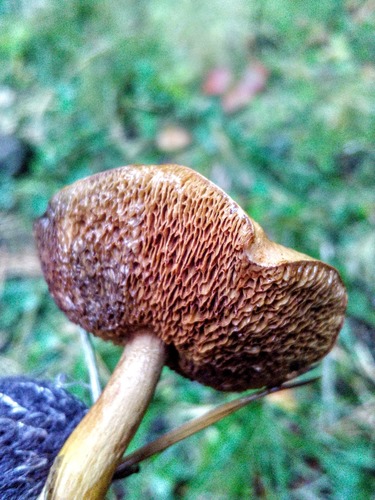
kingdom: Fungi
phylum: Basidiomycota
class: Agaricomycetes
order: Boletales
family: Boletaceae
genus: Chalciporus
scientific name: Chalciporus piperatus
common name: Peppery bolete
